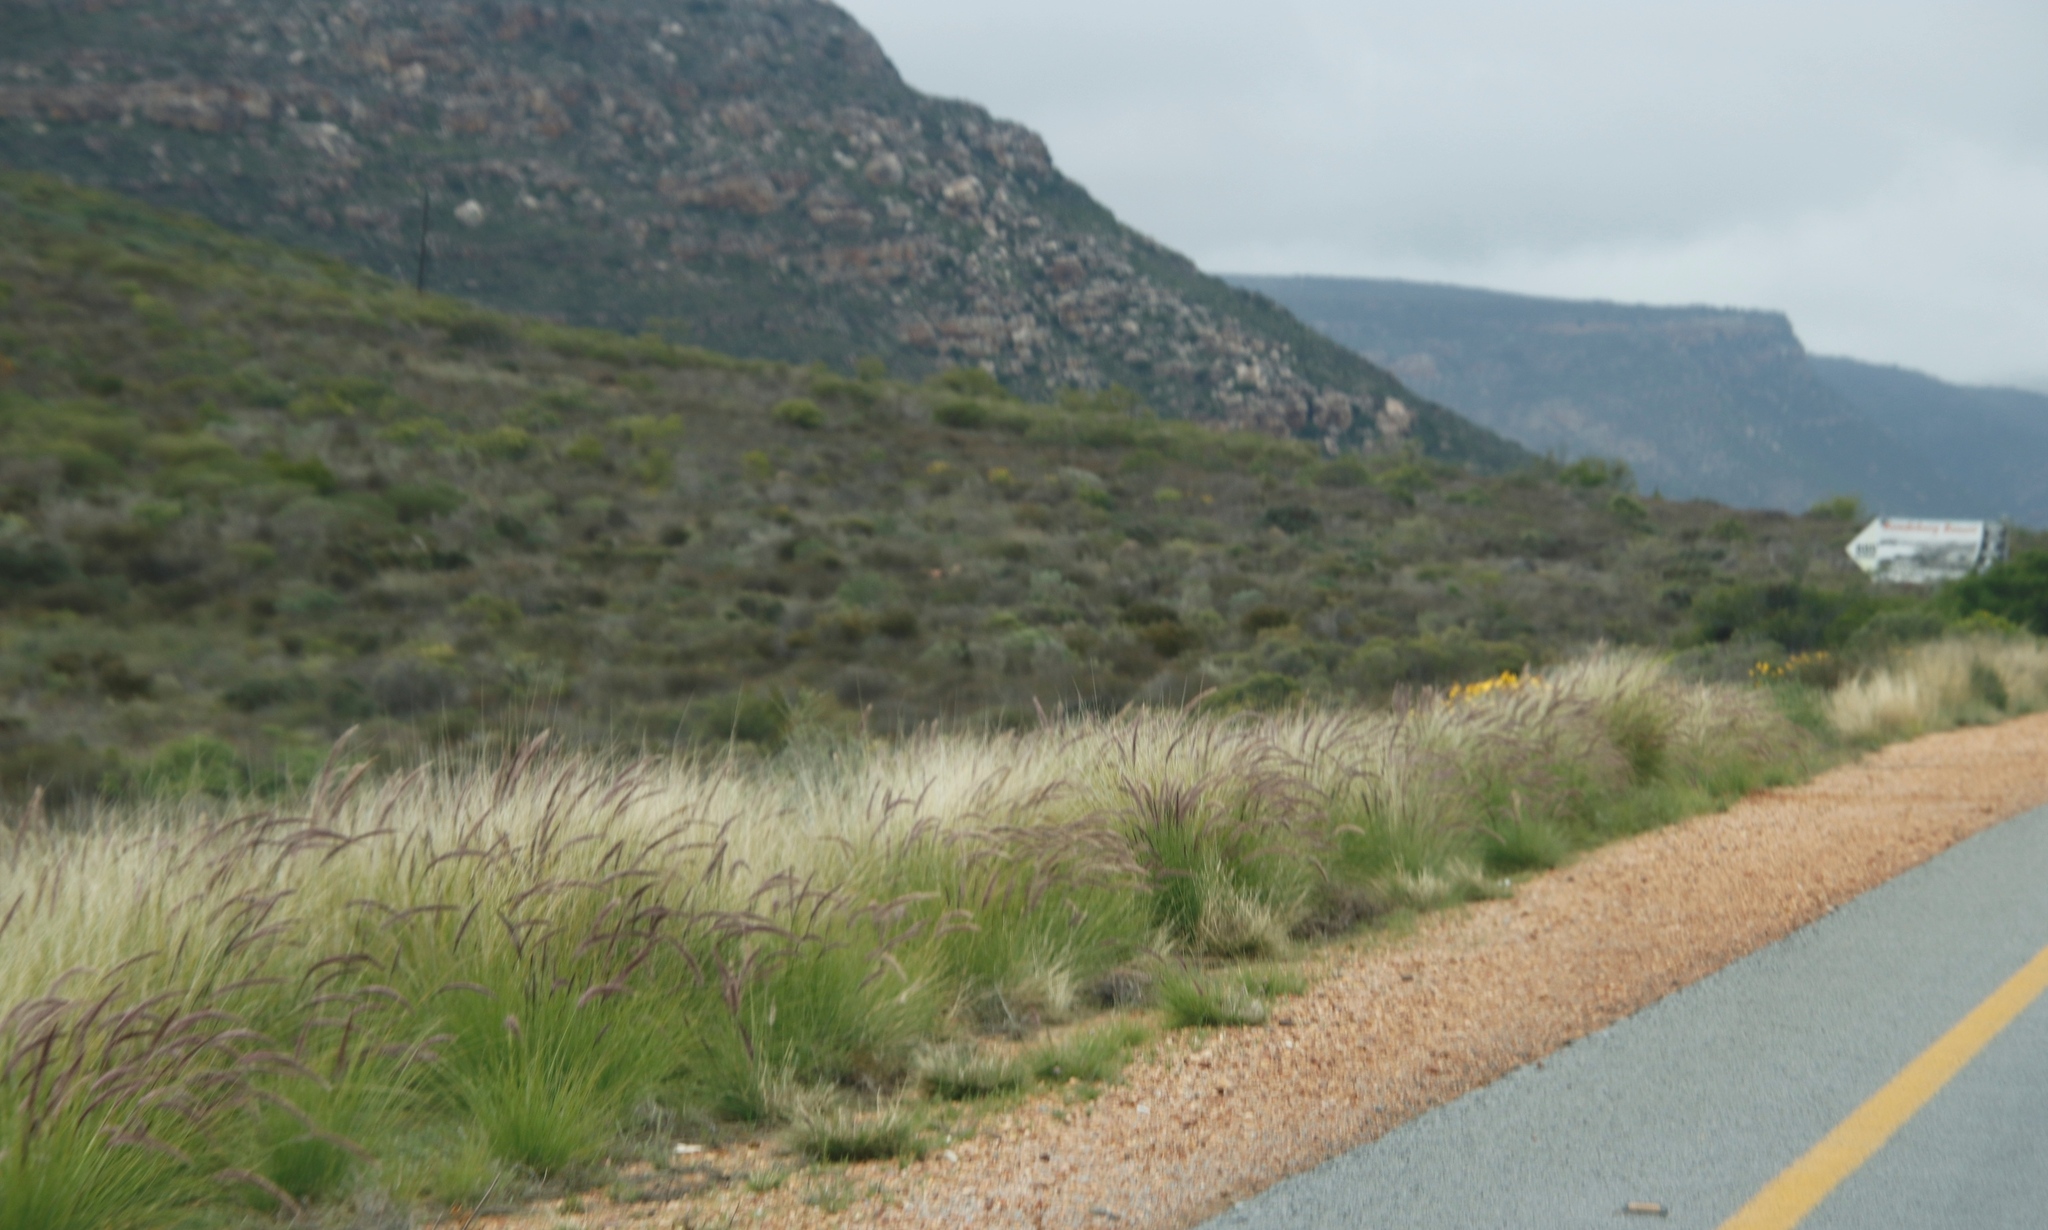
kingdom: Plantae
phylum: Tracheophyta
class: Liliopsida
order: Poales
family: Poaceae
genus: Cenchrus
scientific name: Cenchrus setaceus
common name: Crimson fountaingrass
